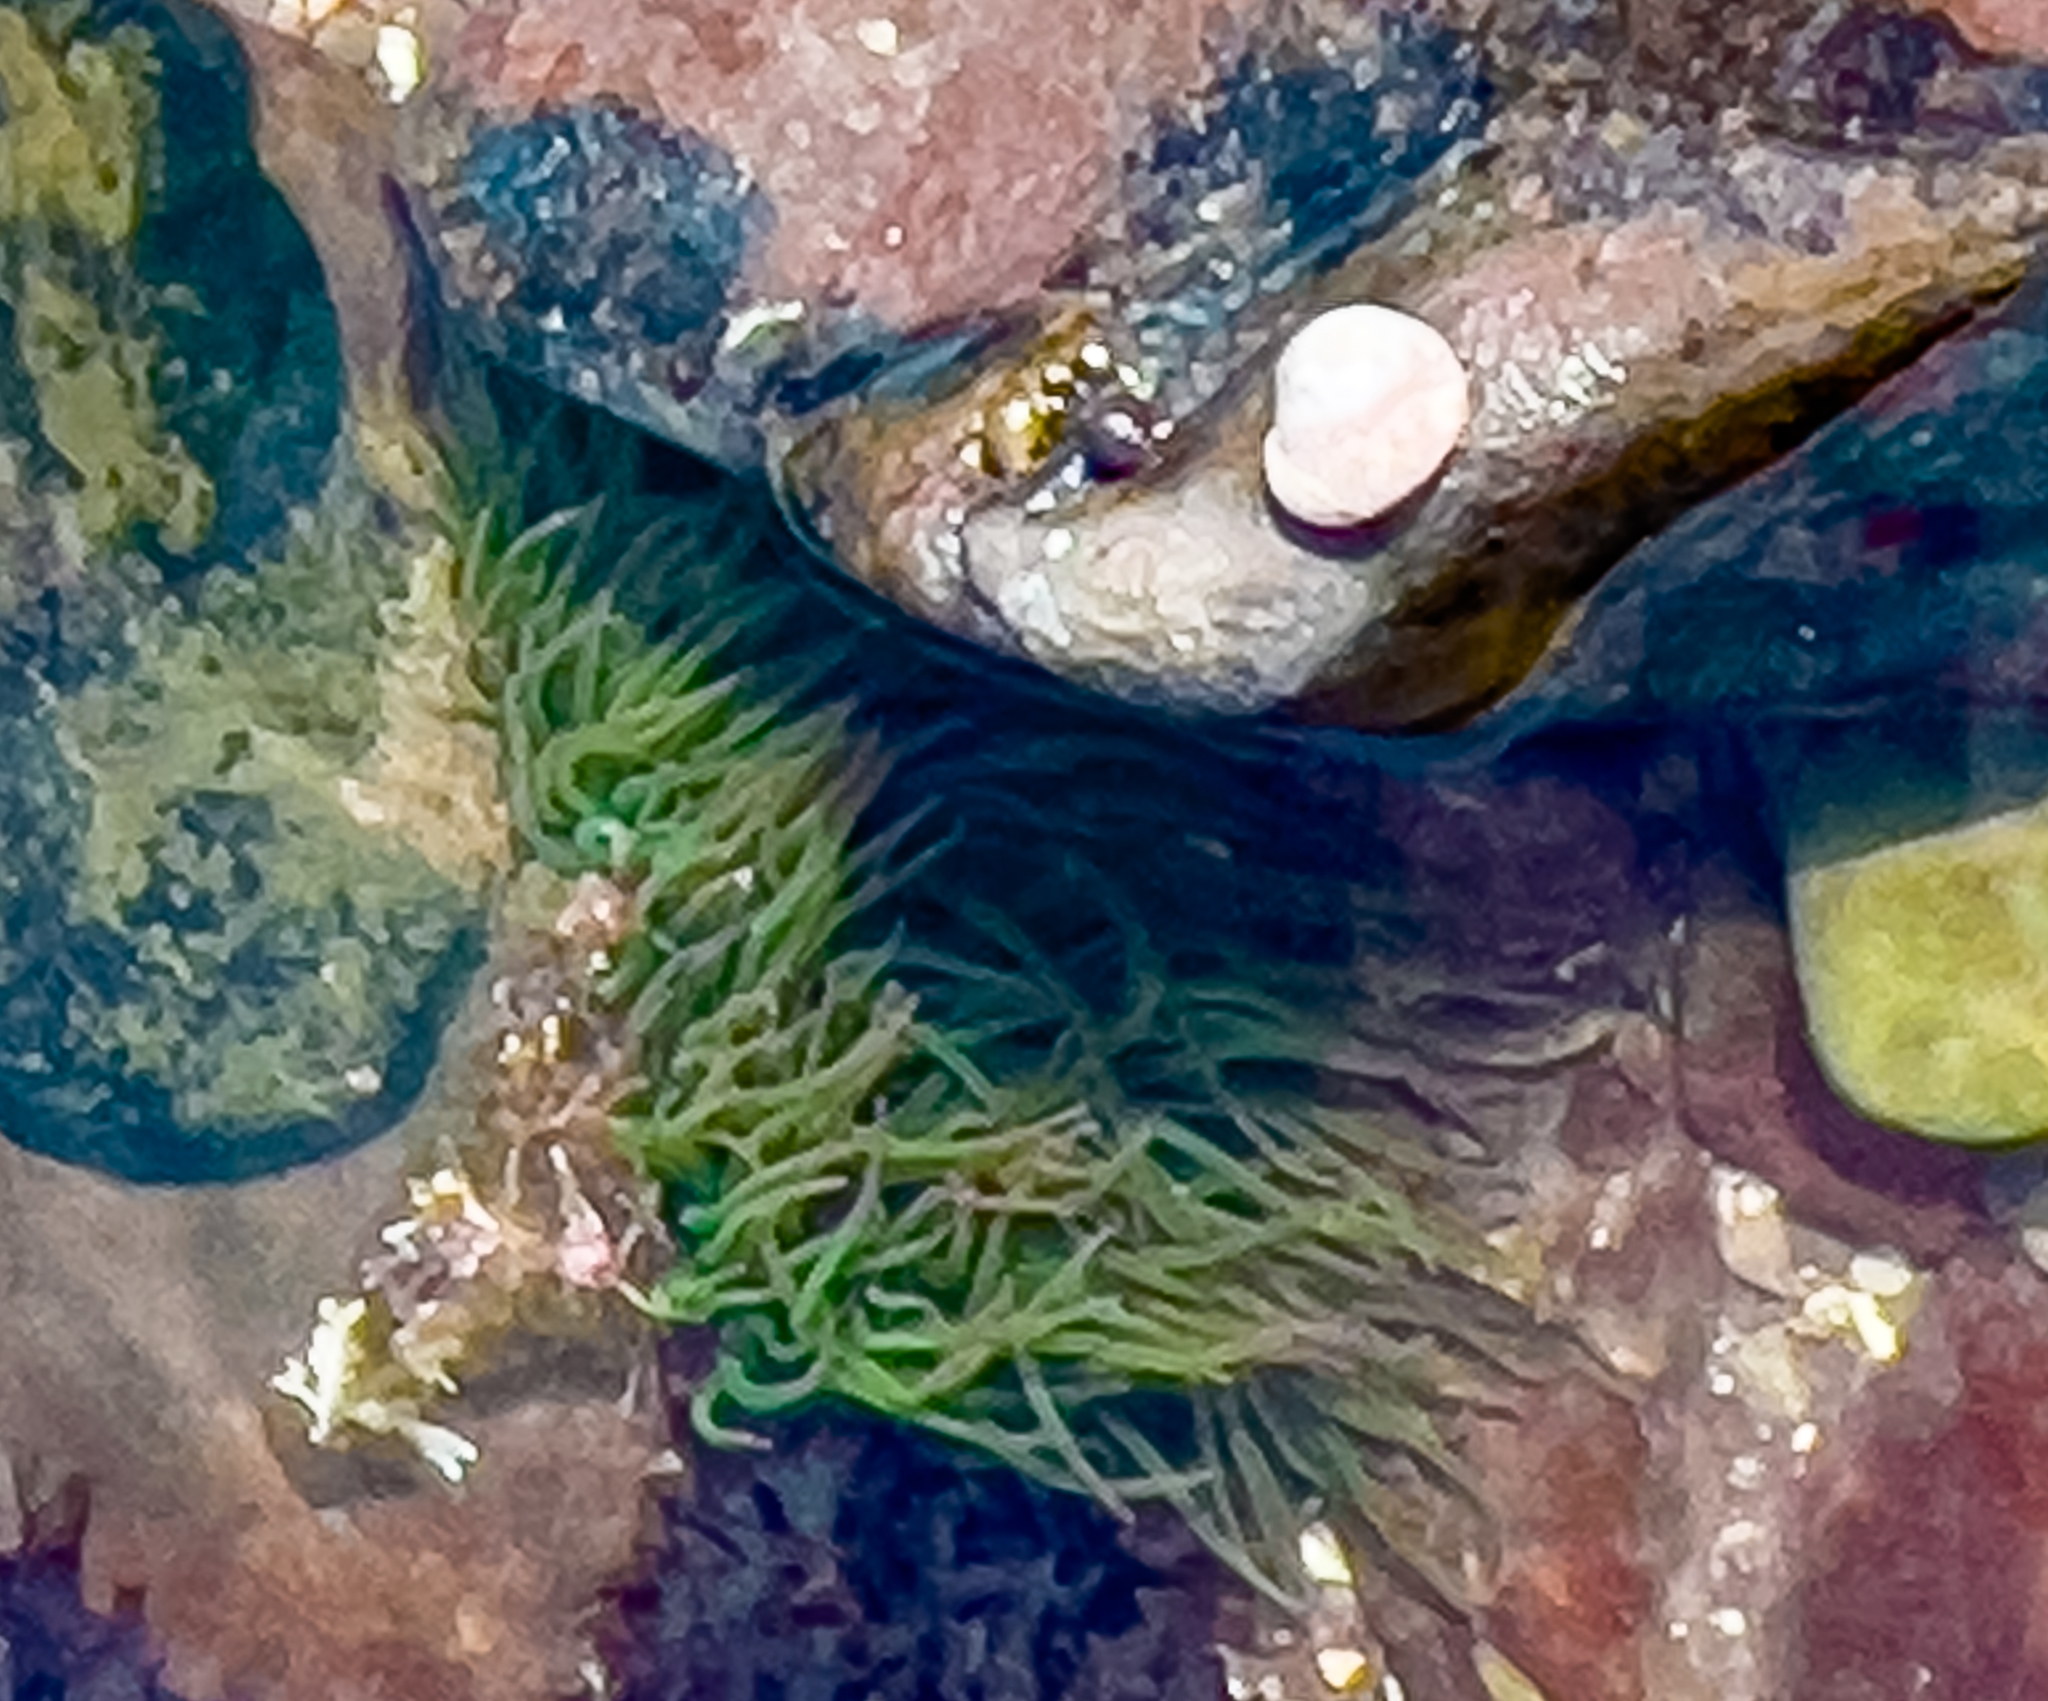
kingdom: Animalia
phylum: Cnidaria
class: Anthozoa
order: Actiniaria
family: Actiniidae
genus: Anemonia
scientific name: Anemonia viridis
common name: Snakelocks anemone
